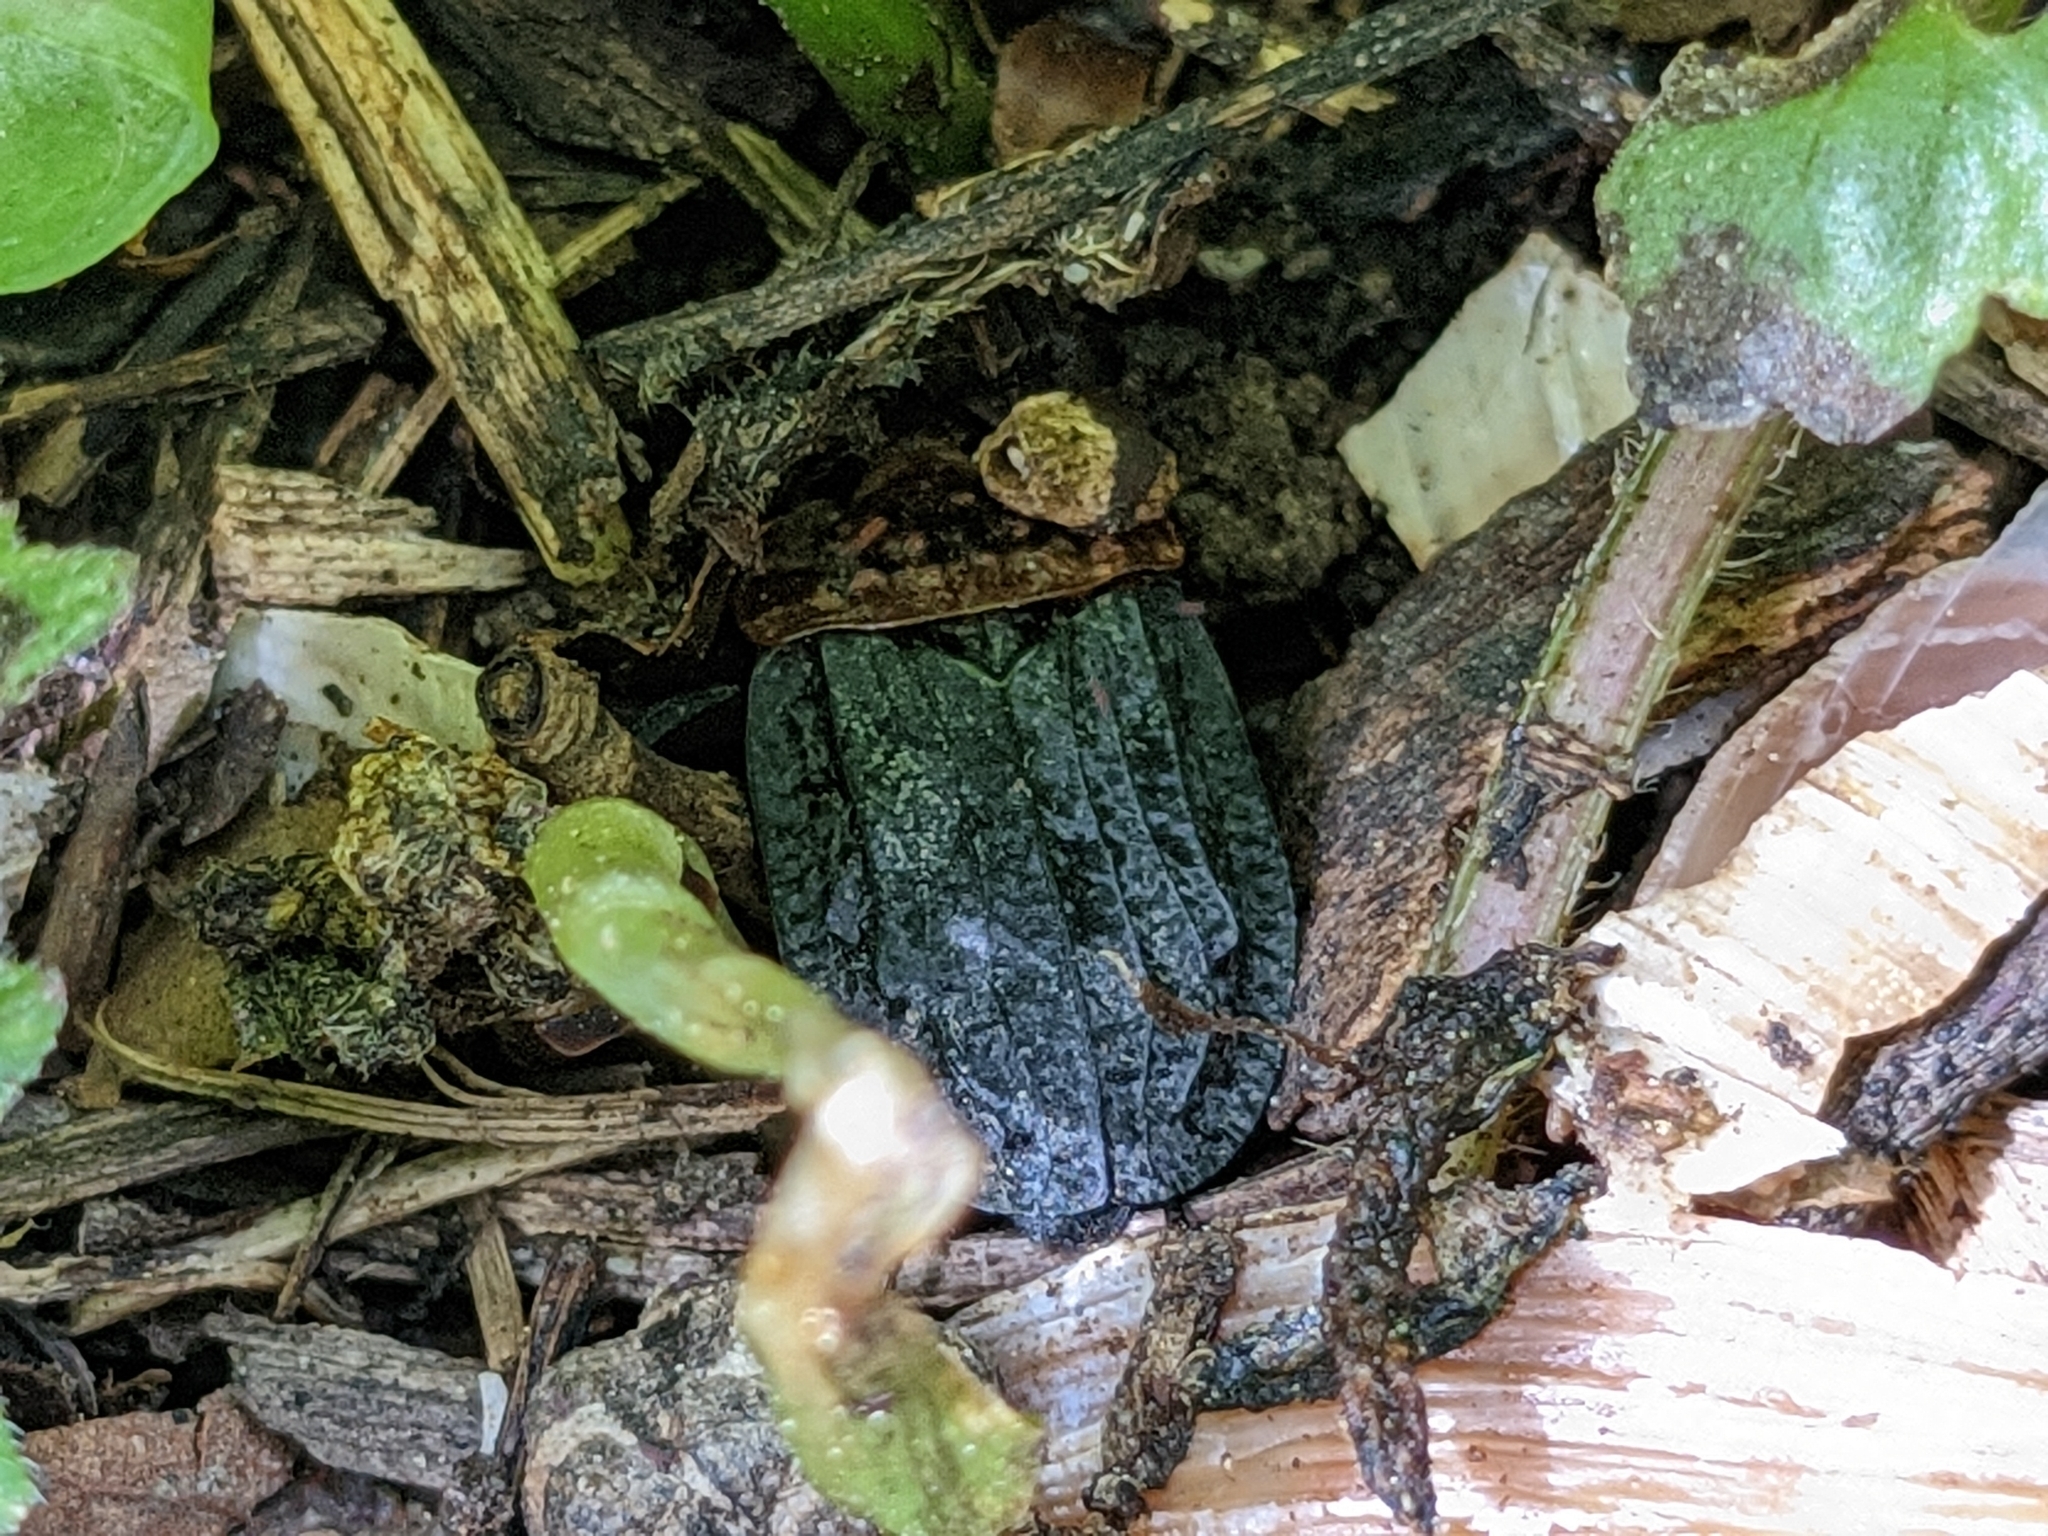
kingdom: Animalia
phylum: Arthropoda
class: Insecta
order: Coleoptera
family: Staphylinidae
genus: Oiceoptoma
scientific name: Oiceoptoma thoracicum
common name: Red-breasted carrion beetle
